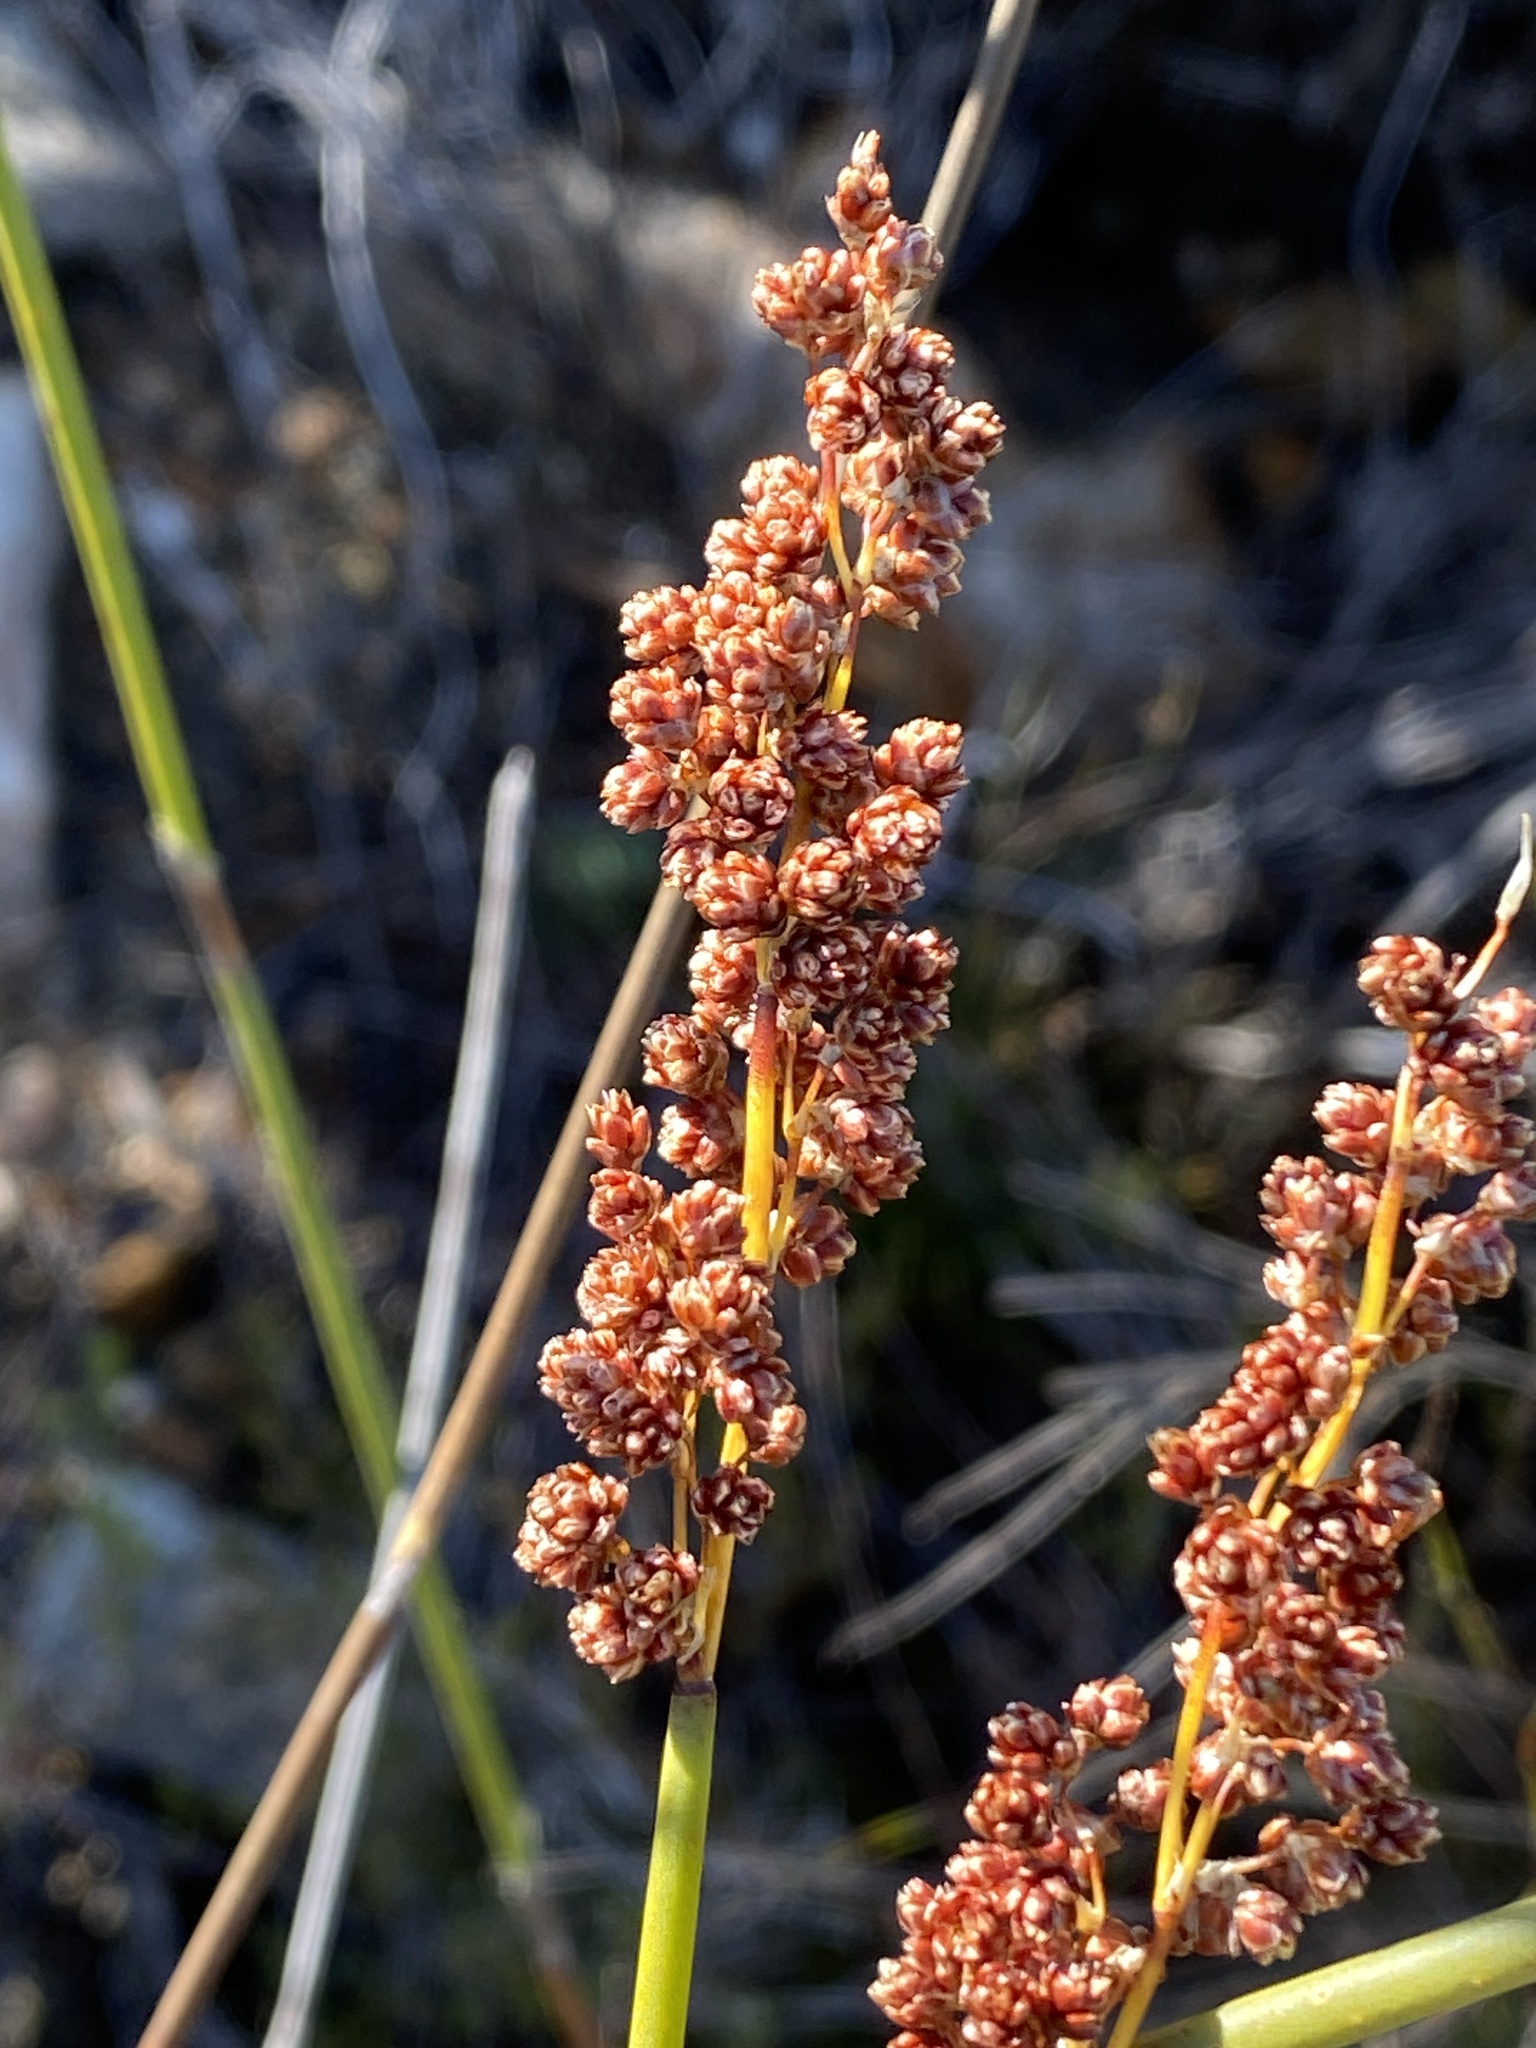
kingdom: Plantae
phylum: Tracheophyta
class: Liliopsida
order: Poales
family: Restionaceae
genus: Cannomois
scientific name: Cannomois scirpoides
